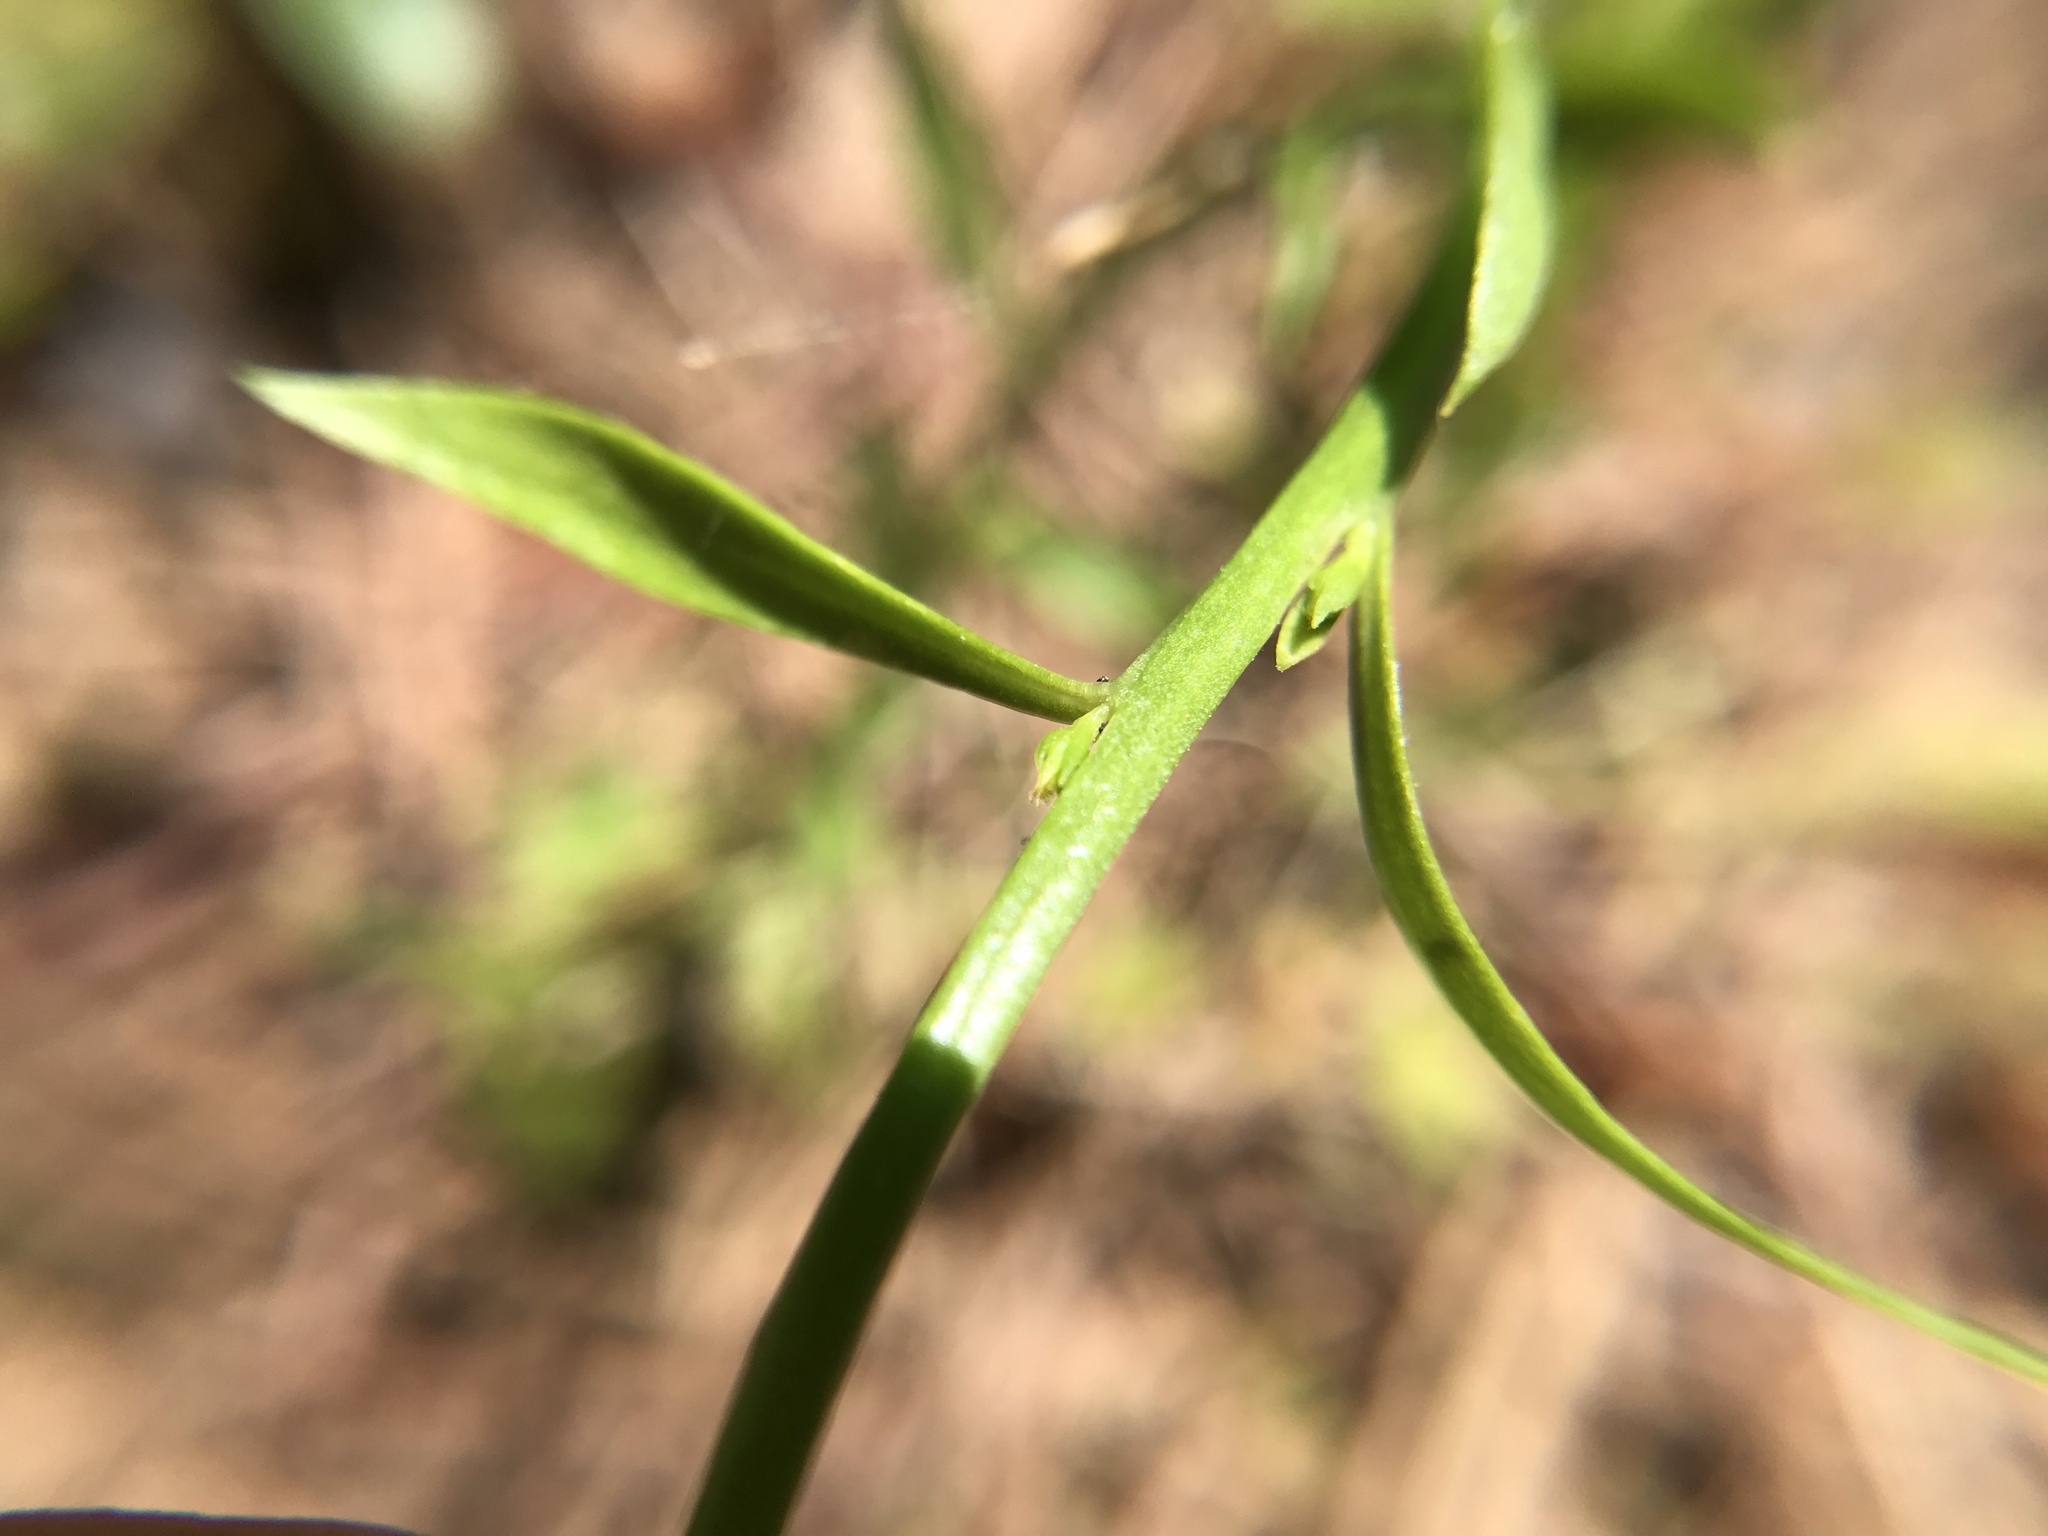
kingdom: Plantae
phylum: Tracheophyta
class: Magnoliopsida
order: Fabales
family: Polygalaceae
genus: Polygala
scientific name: Polygala lutea
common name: Orange milkwort
